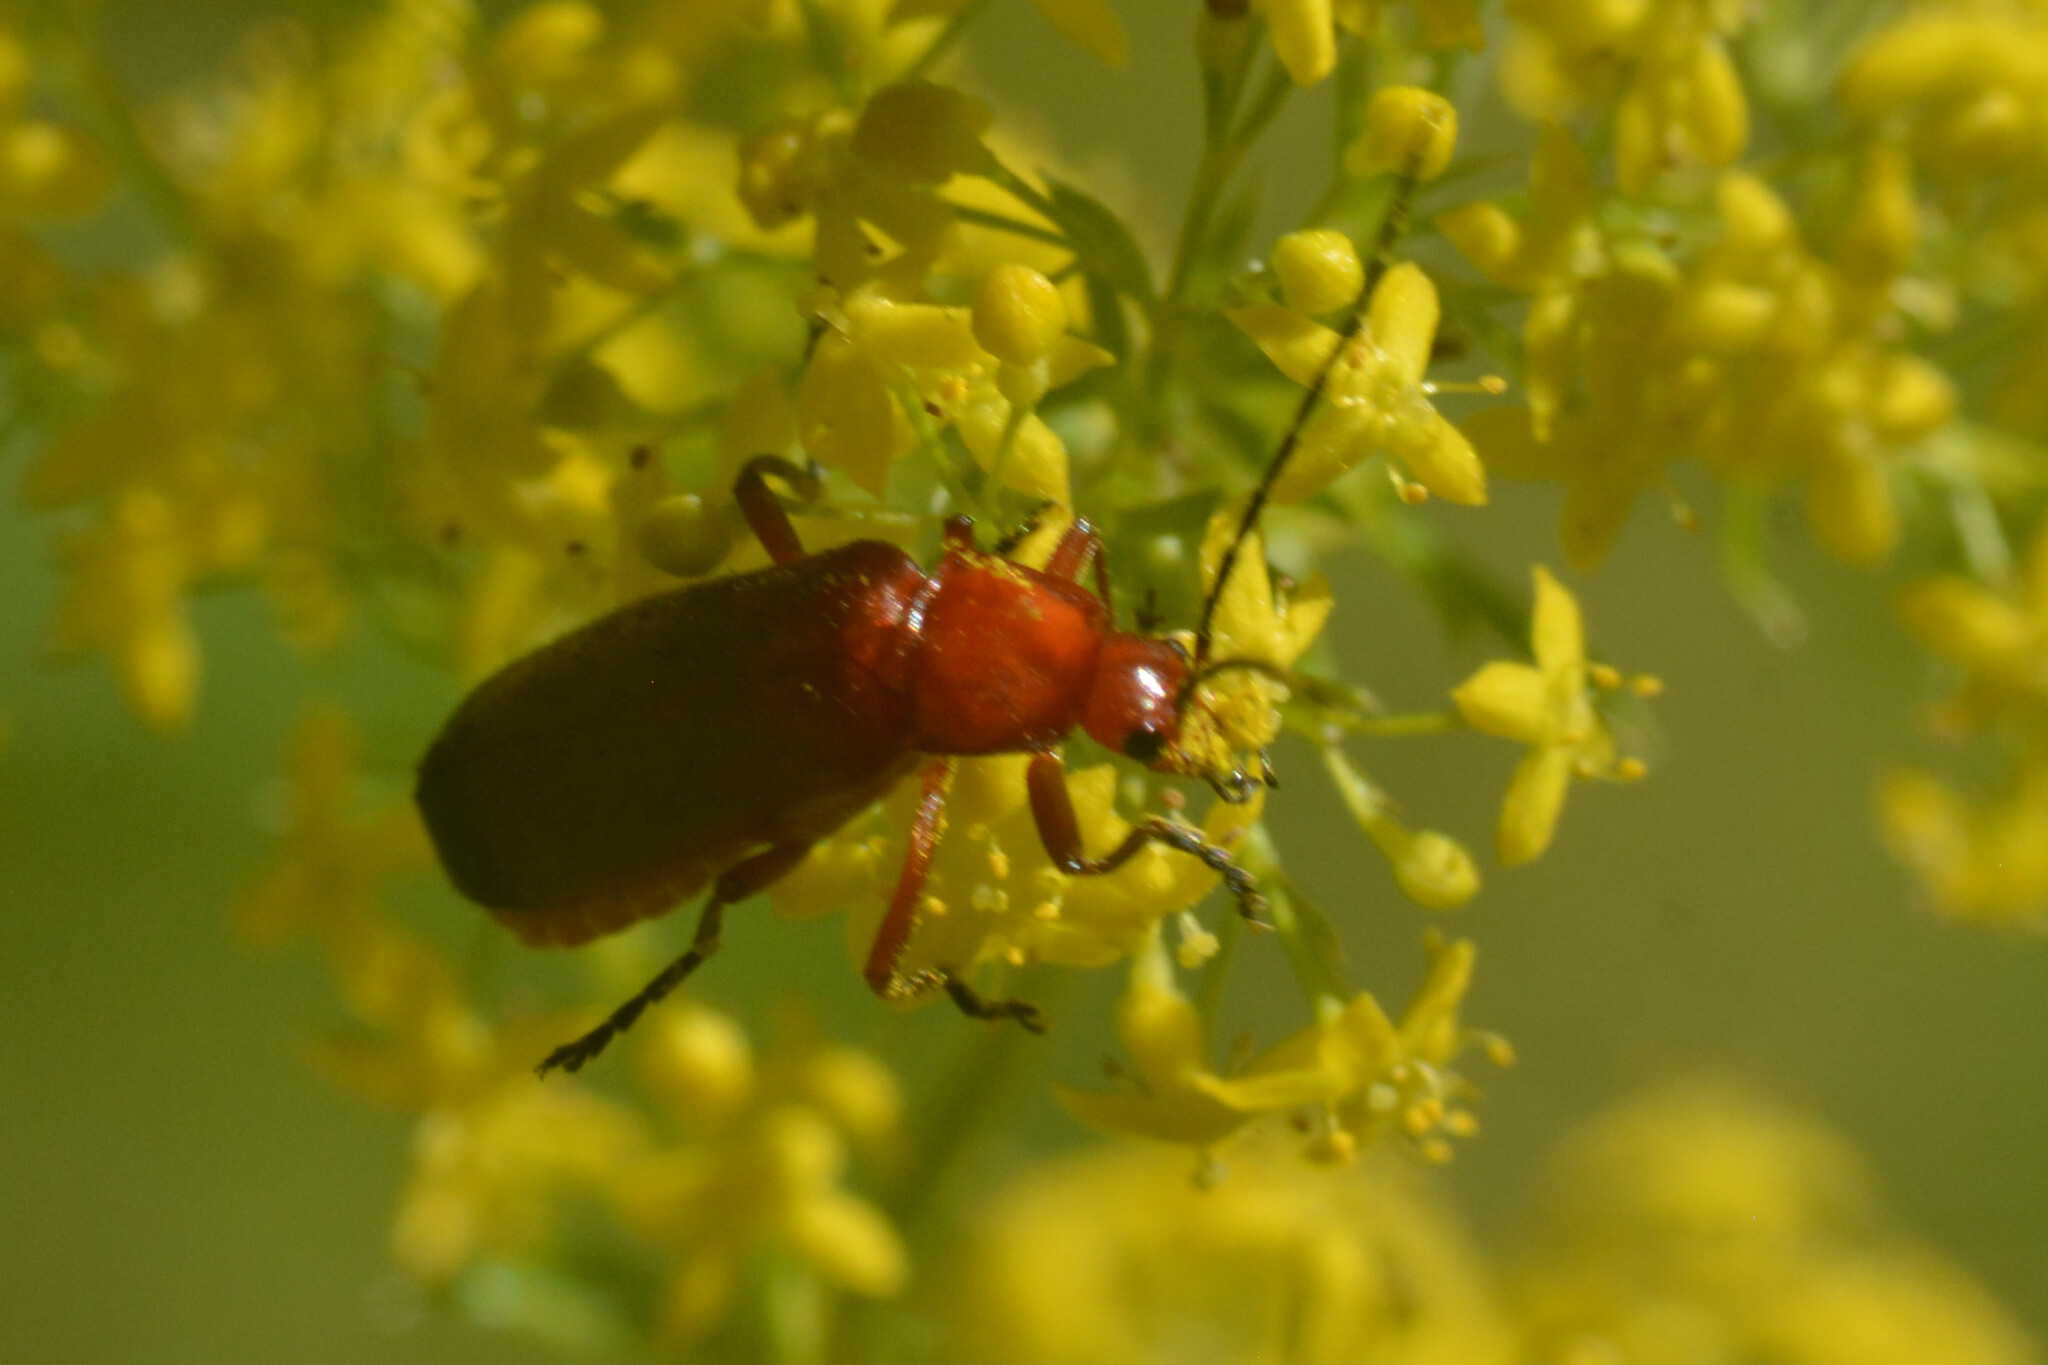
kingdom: Animalia
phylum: Arthropoda
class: Insecta
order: Coleoptera
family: Cantharidae
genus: Rhagonycha
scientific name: Rhagonycha fulva
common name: Common red soldier beetle
